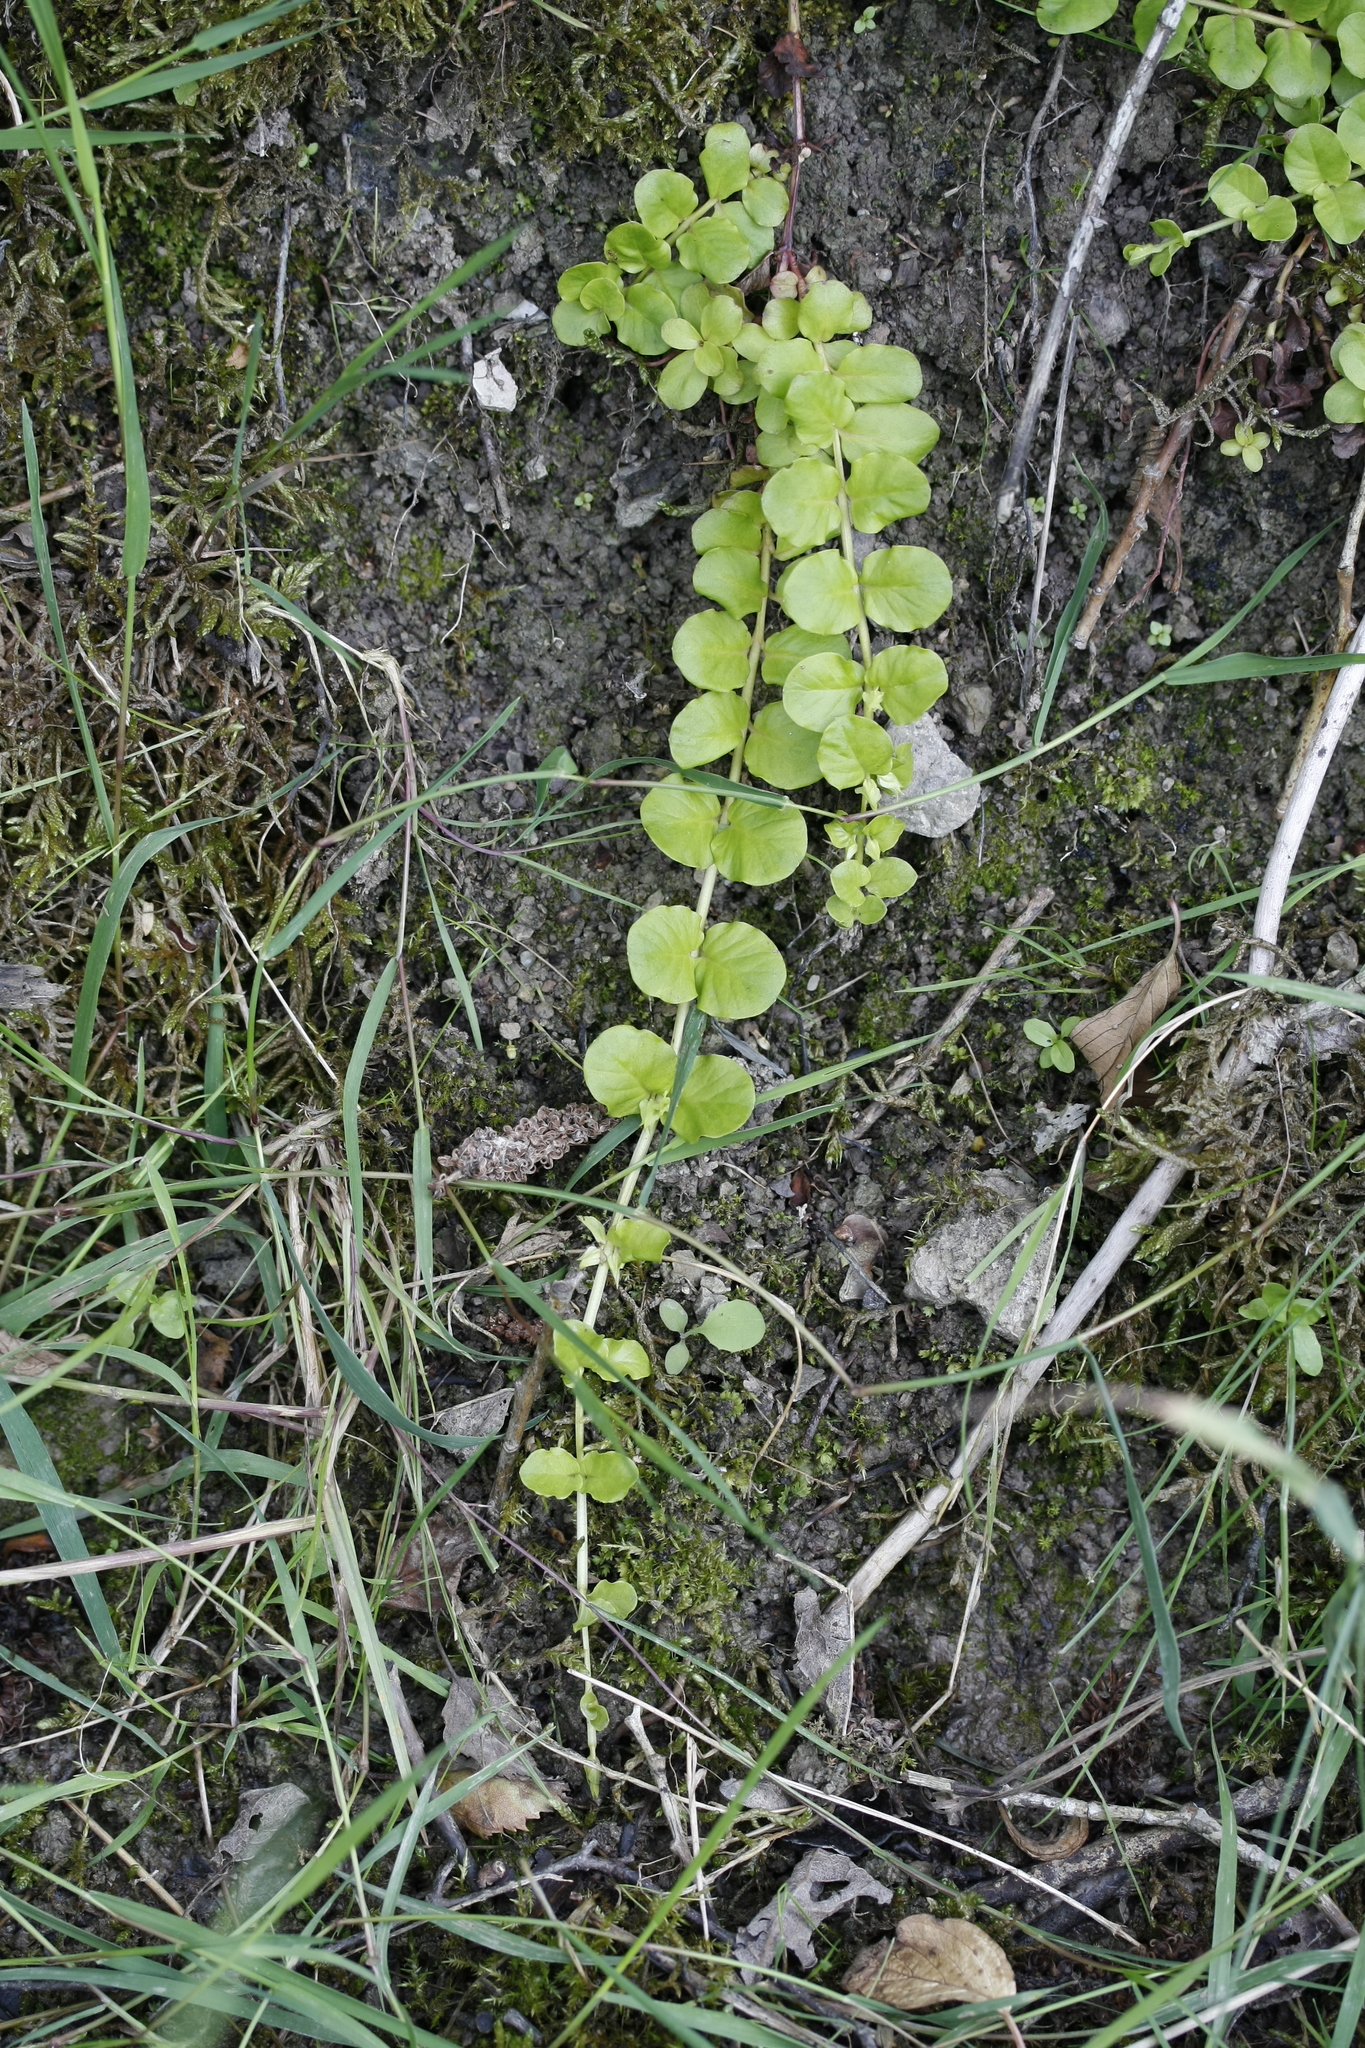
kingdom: Plantae
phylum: Tracheophyta
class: Magnoliopsida
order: Ericales
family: Primulaceae
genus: Lysimachia
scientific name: Lysimachia nummularia
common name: Moneywort
